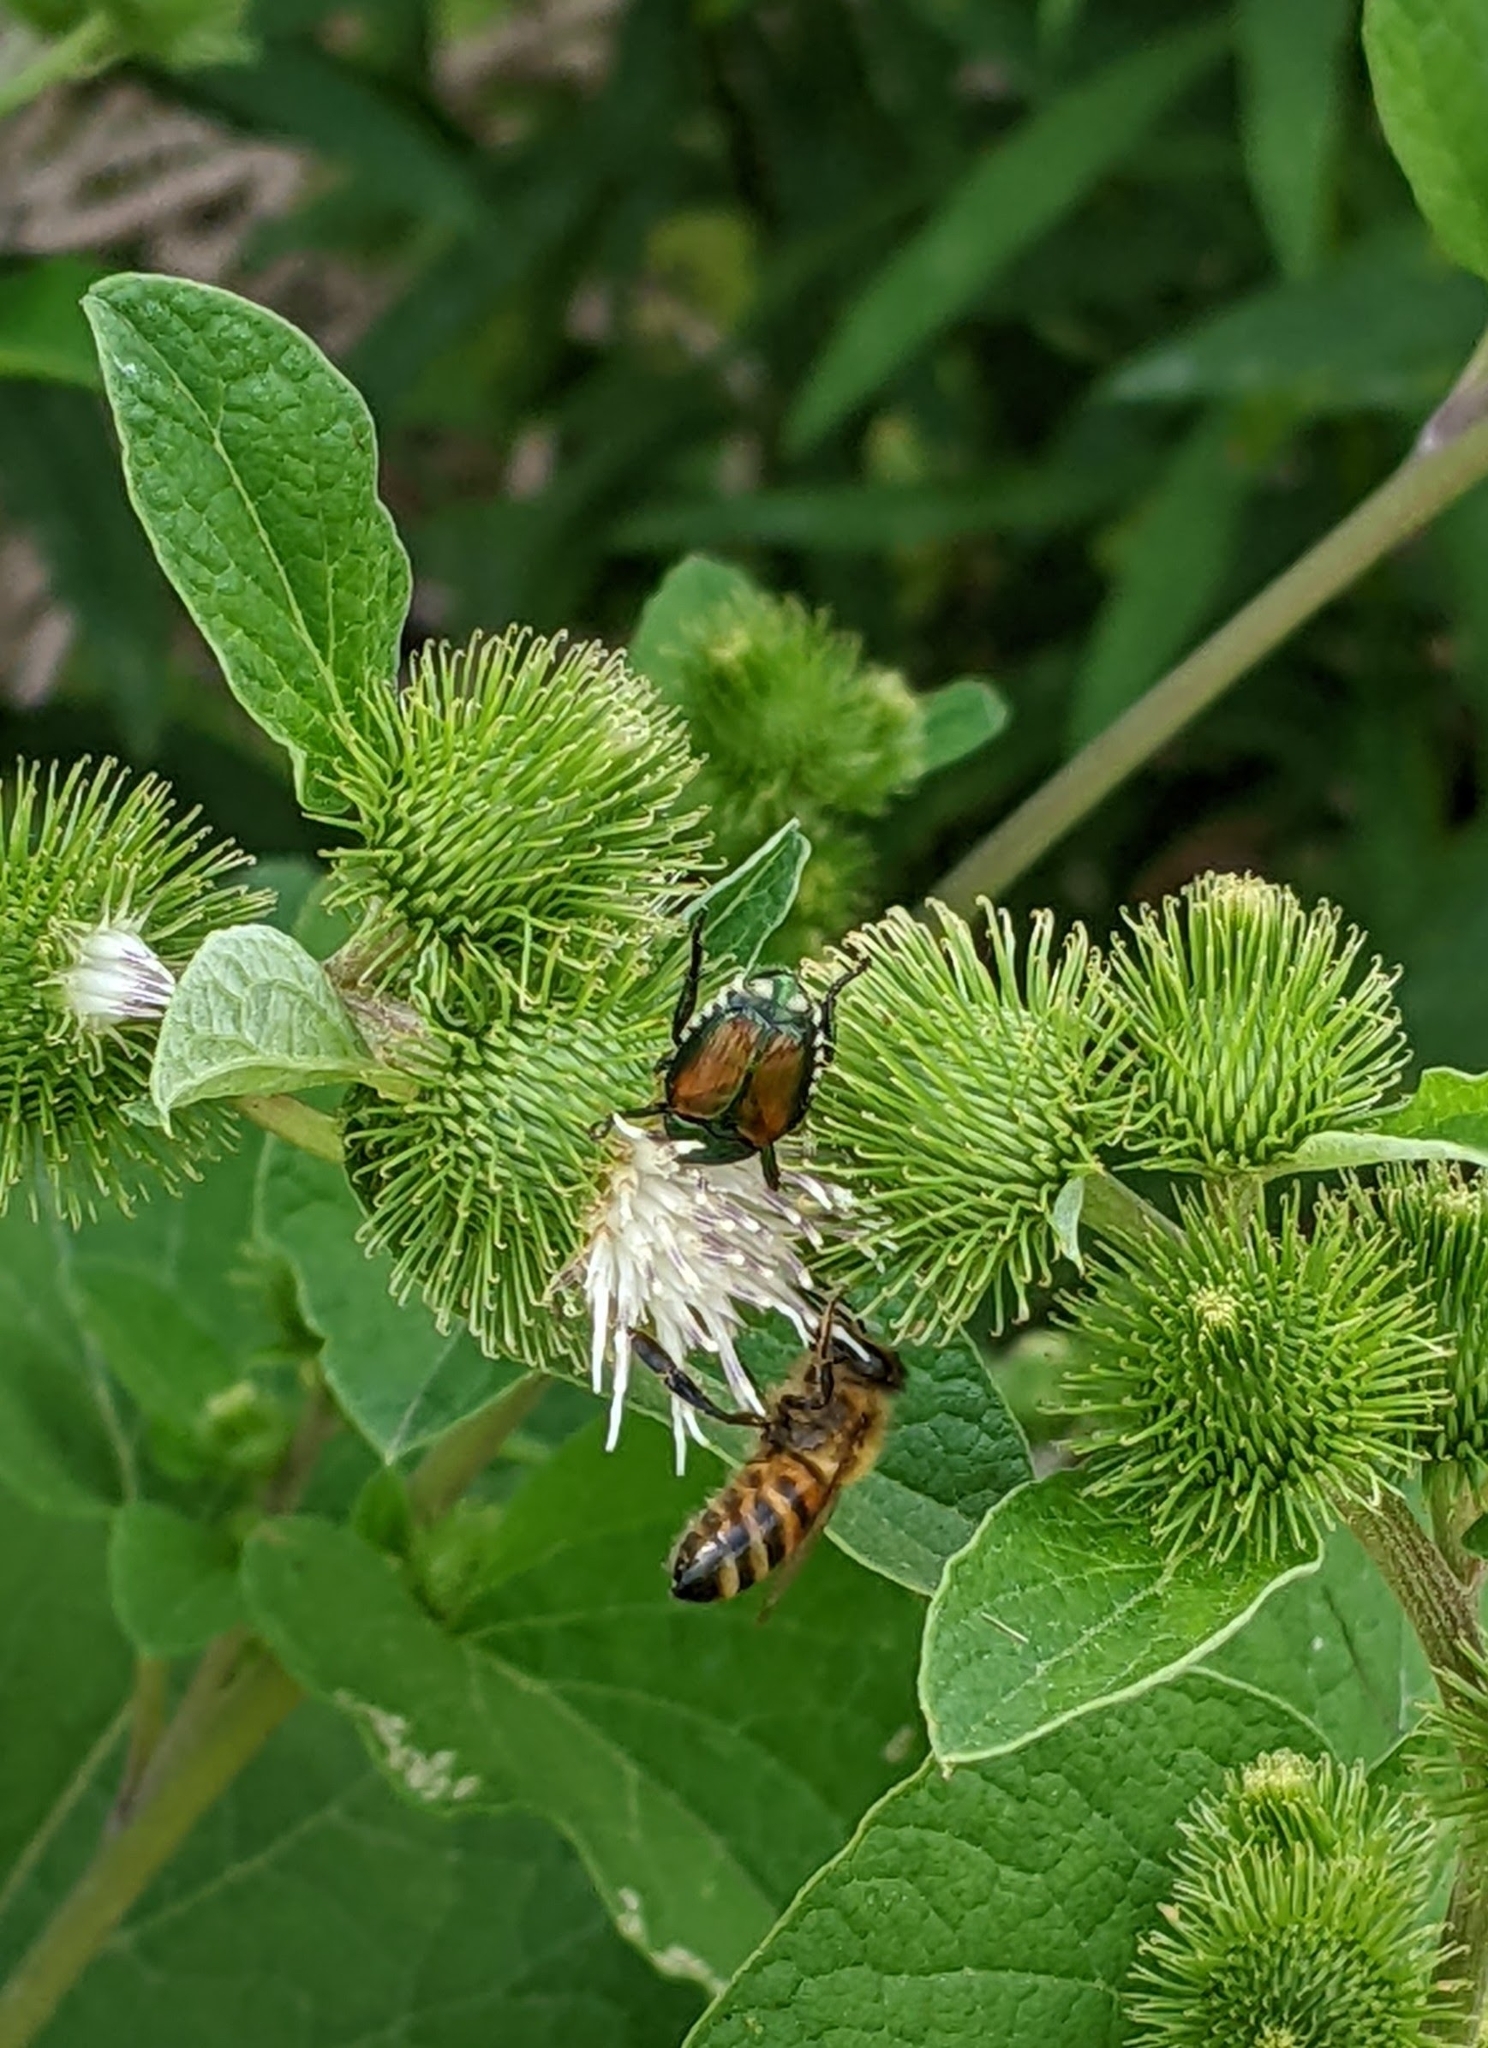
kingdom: Animalia
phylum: Arthropoda
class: Insecta
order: Coleoptera
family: Scarabaeidae
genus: Popillia
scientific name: Popillia japonica
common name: Japanese beetle
